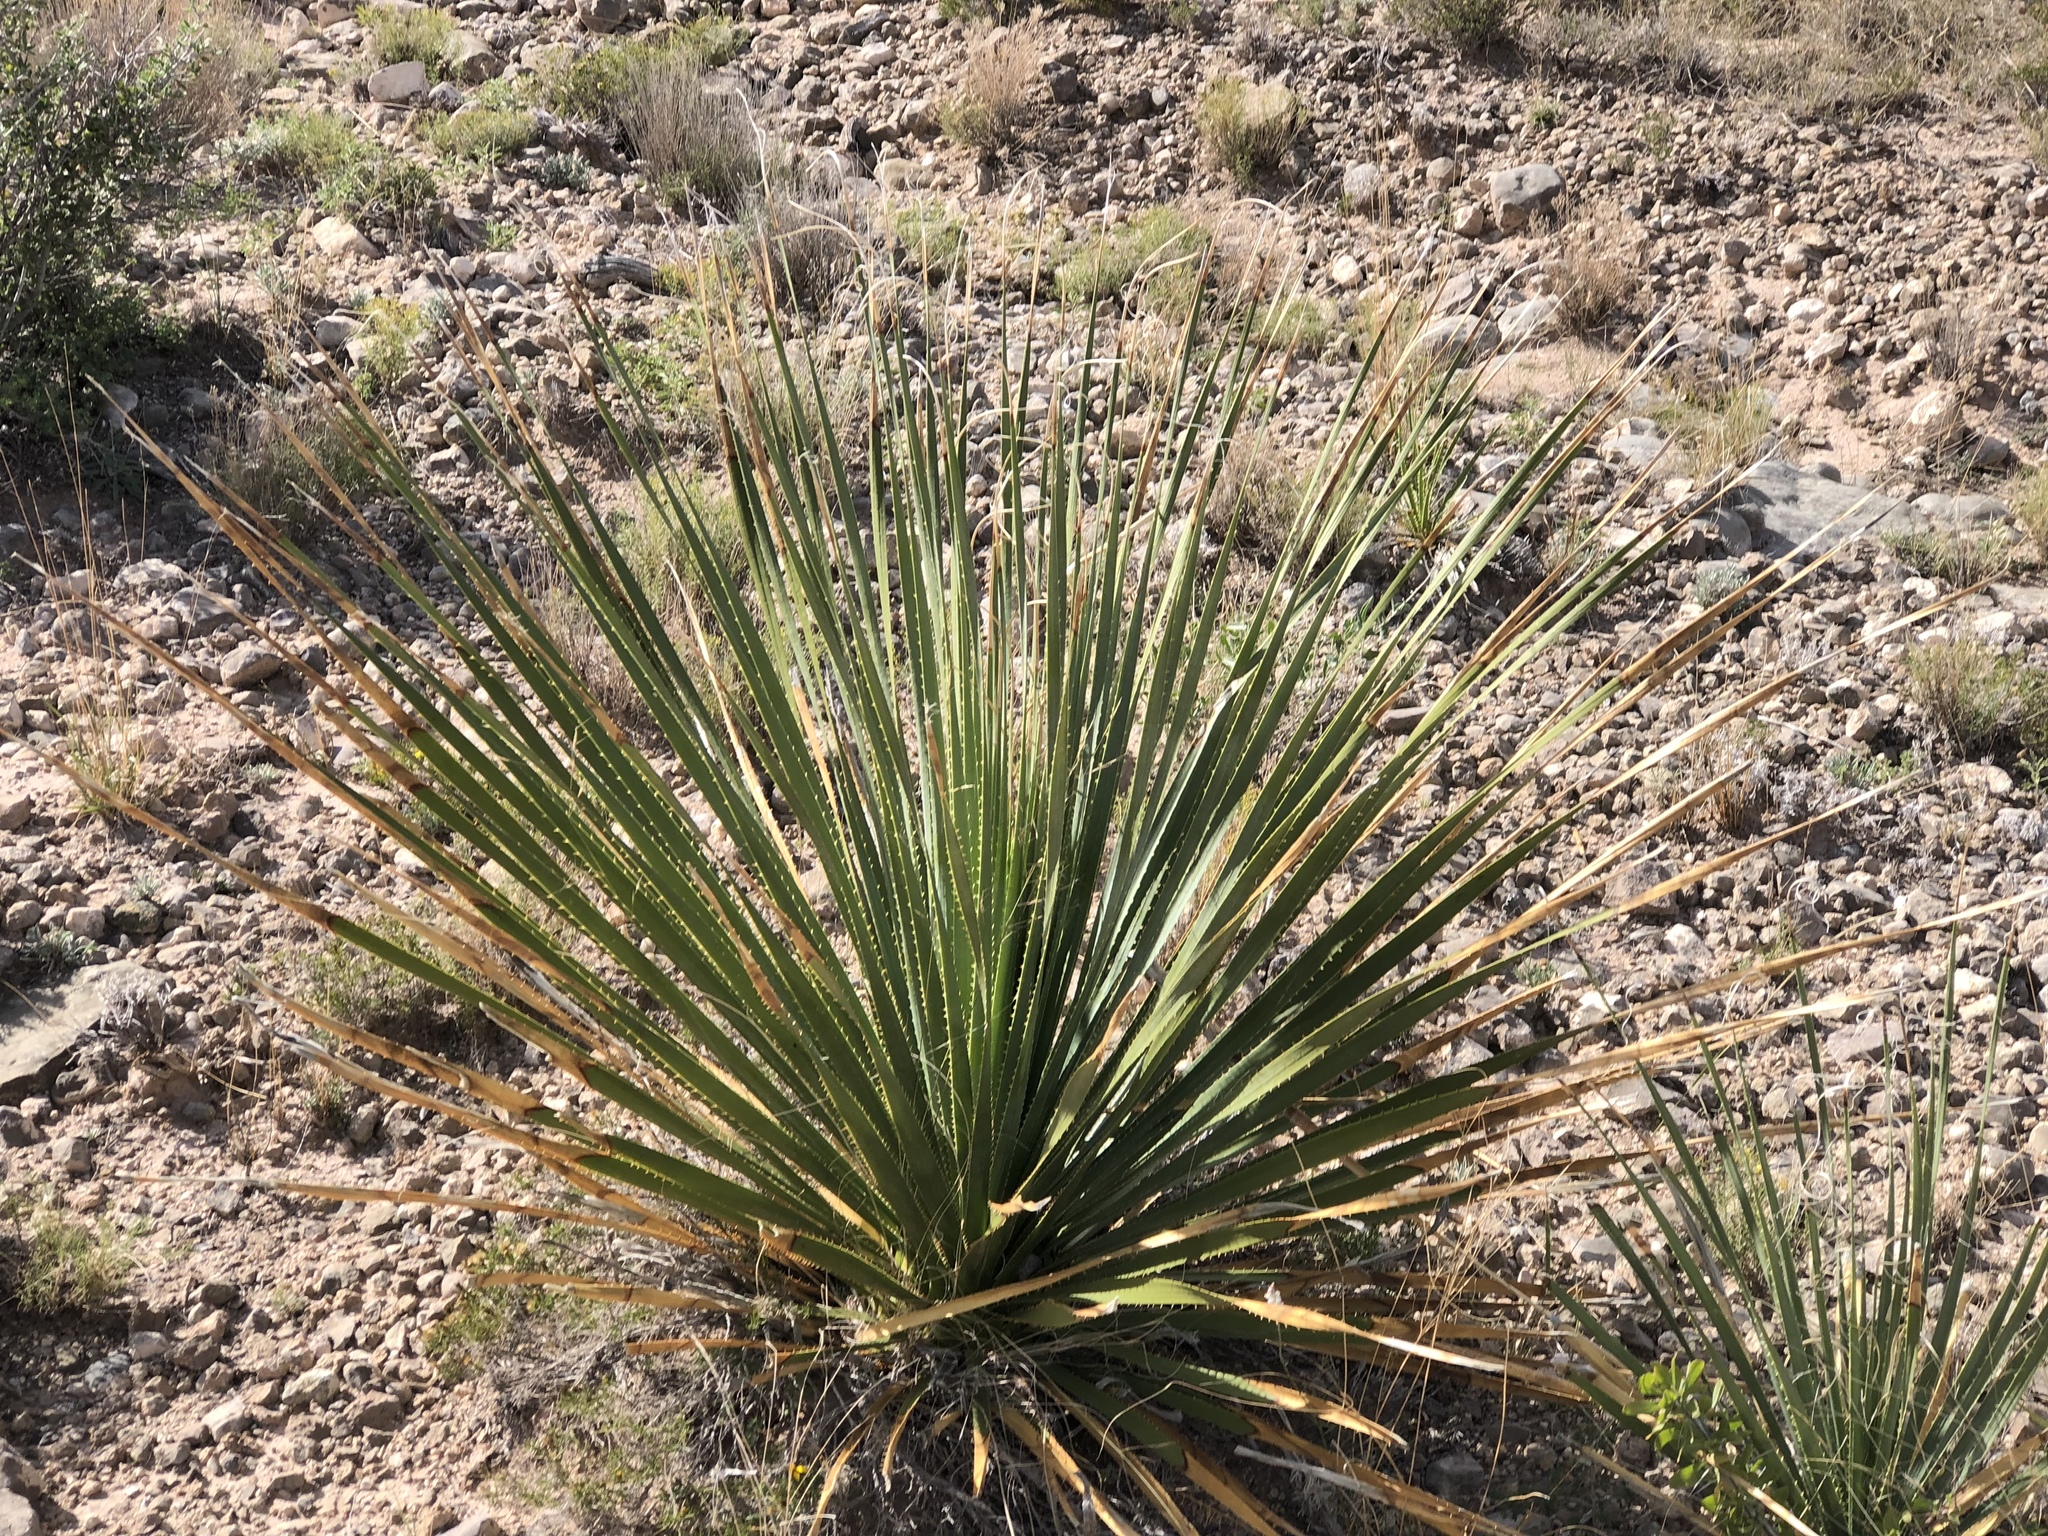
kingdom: Plantae
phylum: Tracheophyta
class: Liliopsida
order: Asparagales
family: Asparagaceae
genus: Dasylirion
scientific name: Dasylirion wheeleri
